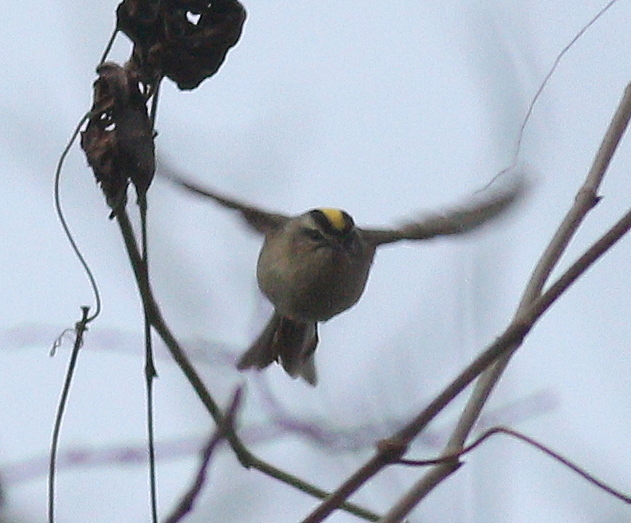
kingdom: Animalia
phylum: Chordata
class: Aves
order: Passeriformes
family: Regulidae
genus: Regulus
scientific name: Regulus satrapa
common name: Golden-crowned kinglet
